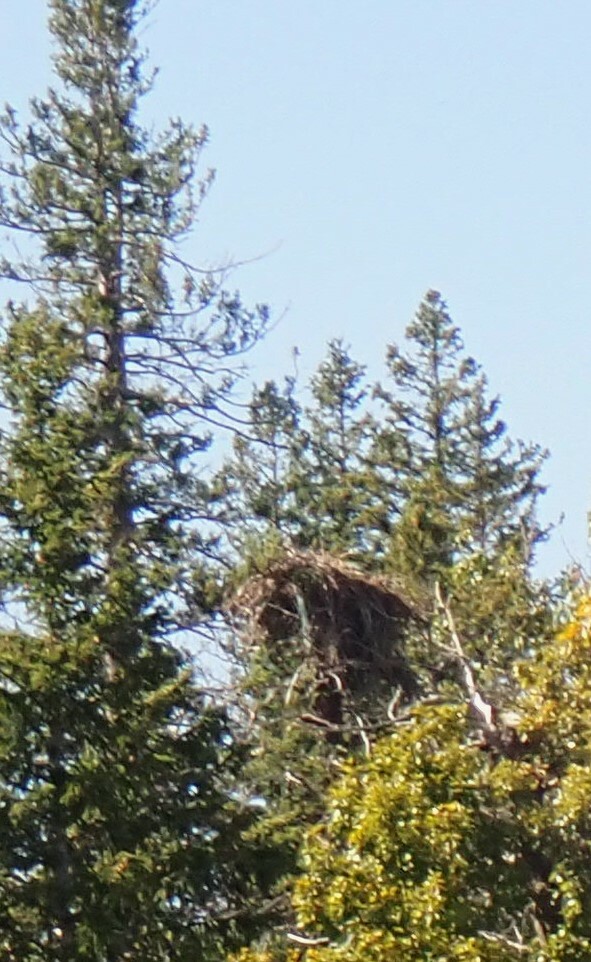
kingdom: Animalia
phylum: Chordata
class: Aves
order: Accipitriformes
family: Pandionidae
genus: Pandion
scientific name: Pandion haliaetus
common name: Osprey
